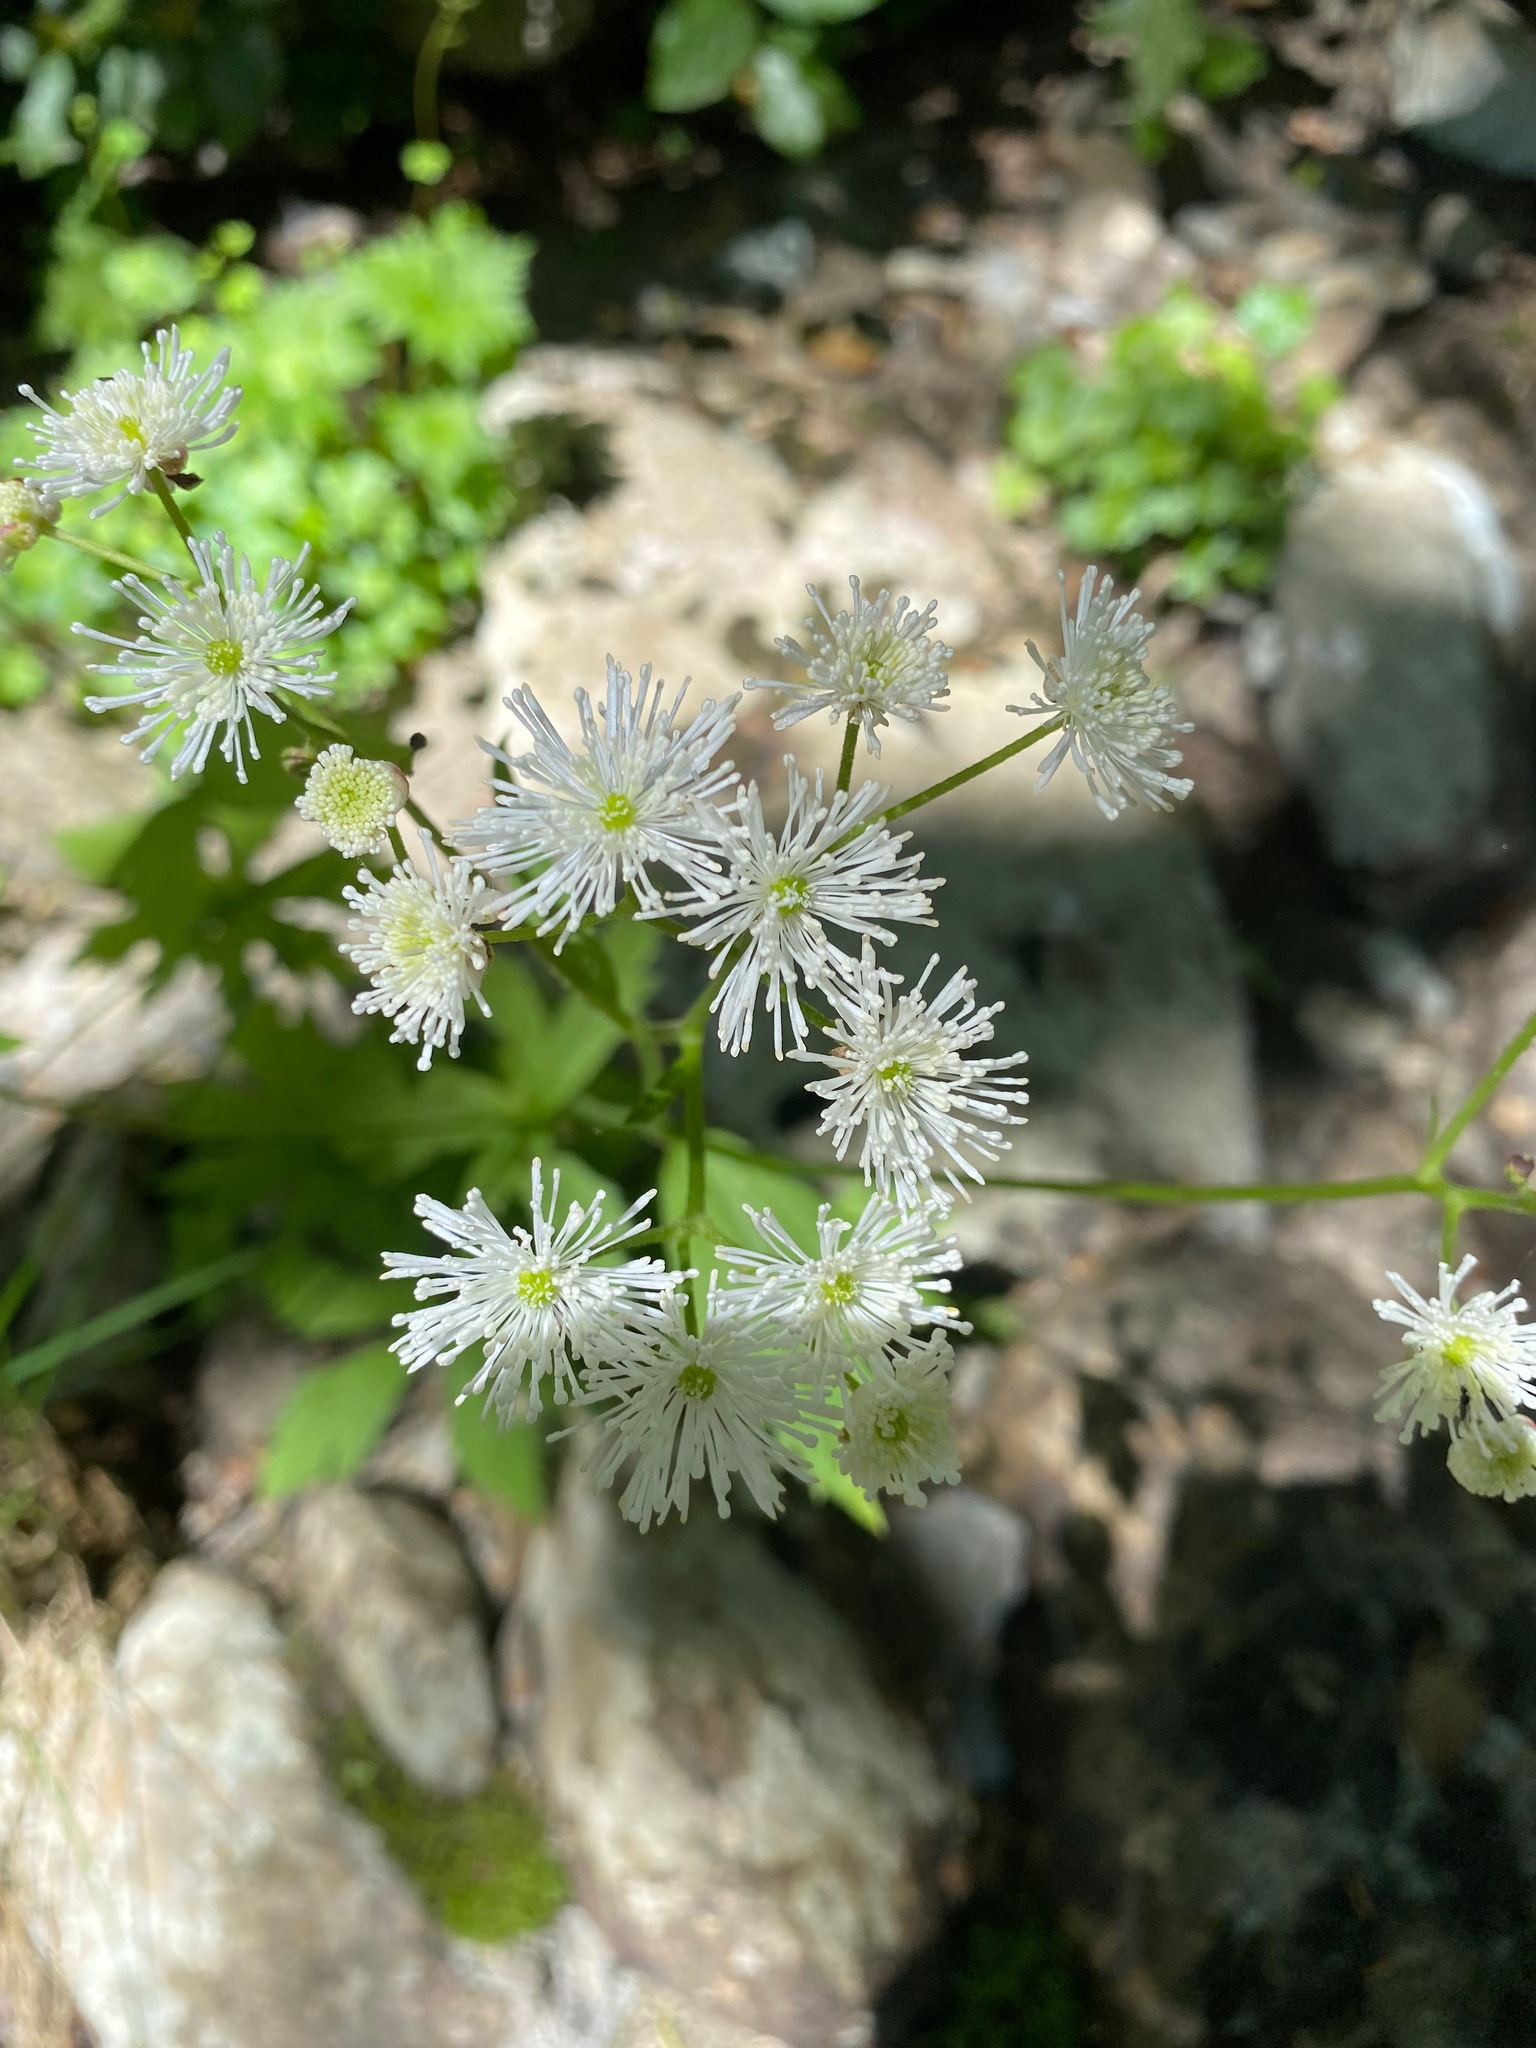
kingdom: Plantae
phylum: Tracheophyta
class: Magnoliopsida
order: Ranunculales
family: Ranunculaceae
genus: Trautvetteria
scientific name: Trautvetteria carolinensis
